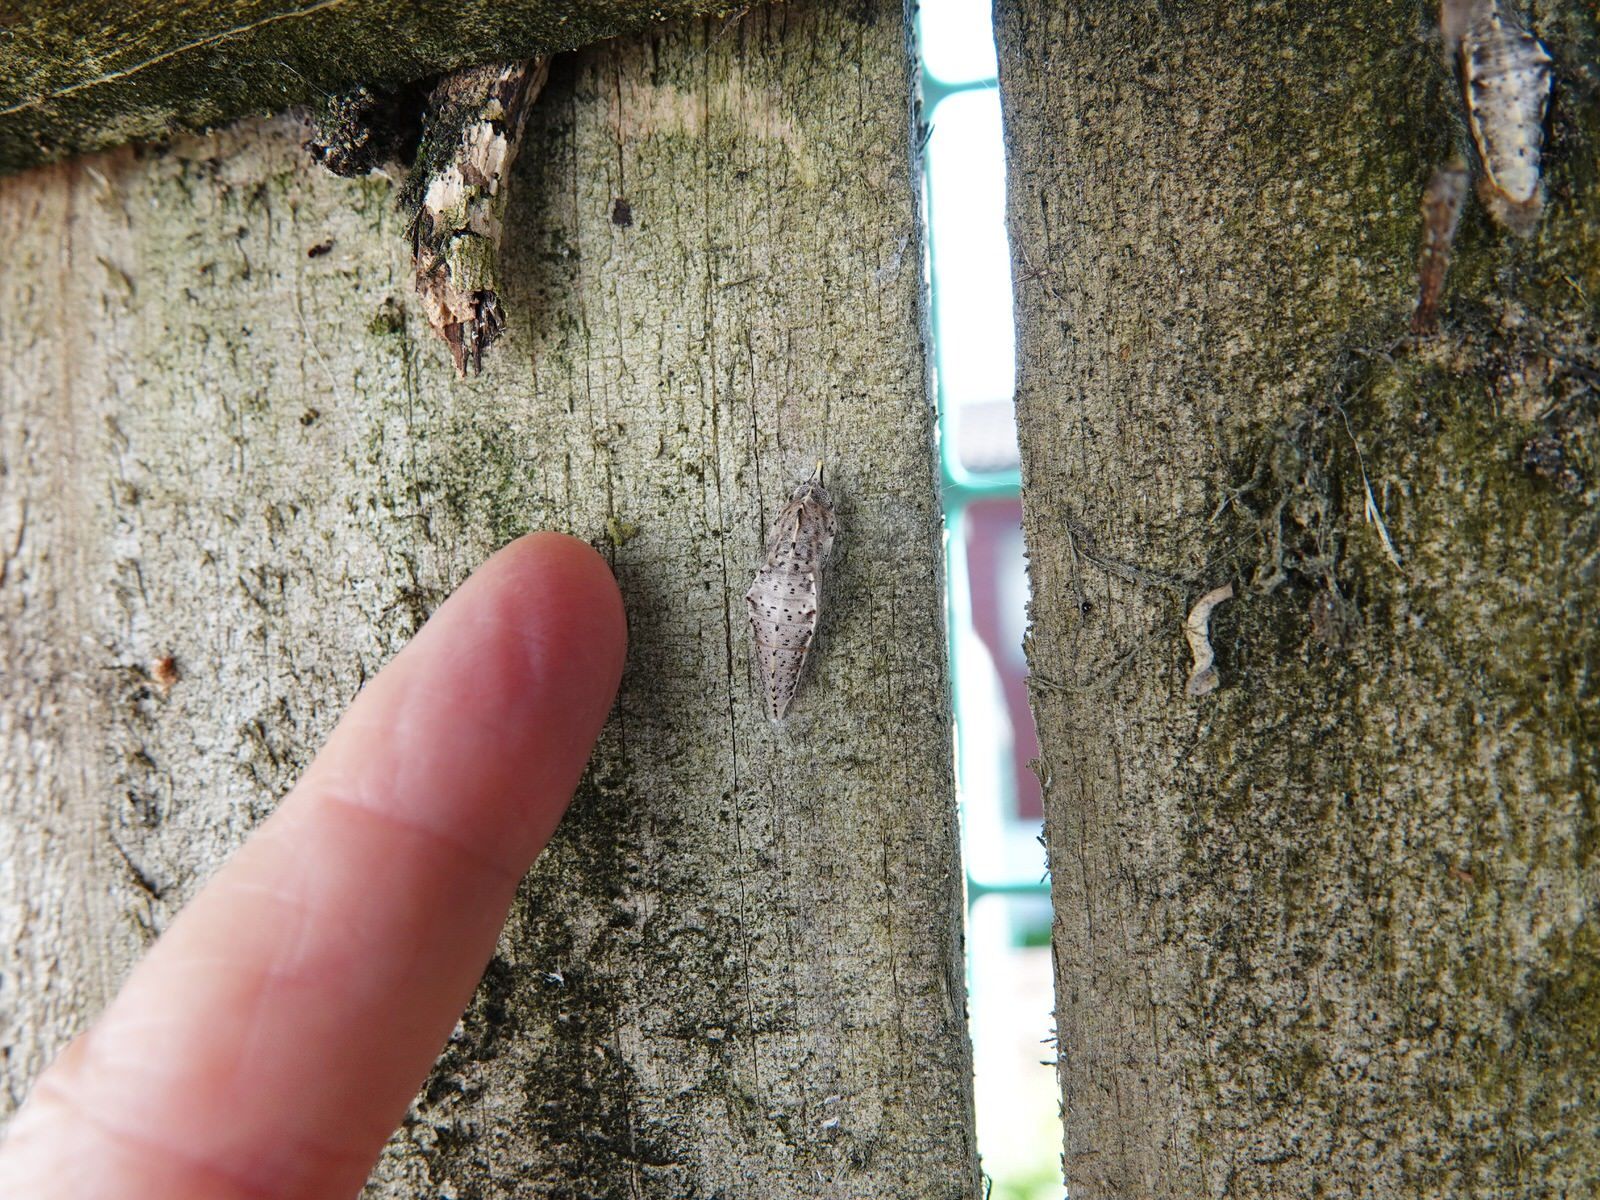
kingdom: Animalia
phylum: Arthropoda
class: Insecta
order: Lepidoptera
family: Pieridae
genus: Pieris
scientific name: Pieris rapae
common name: Small white
